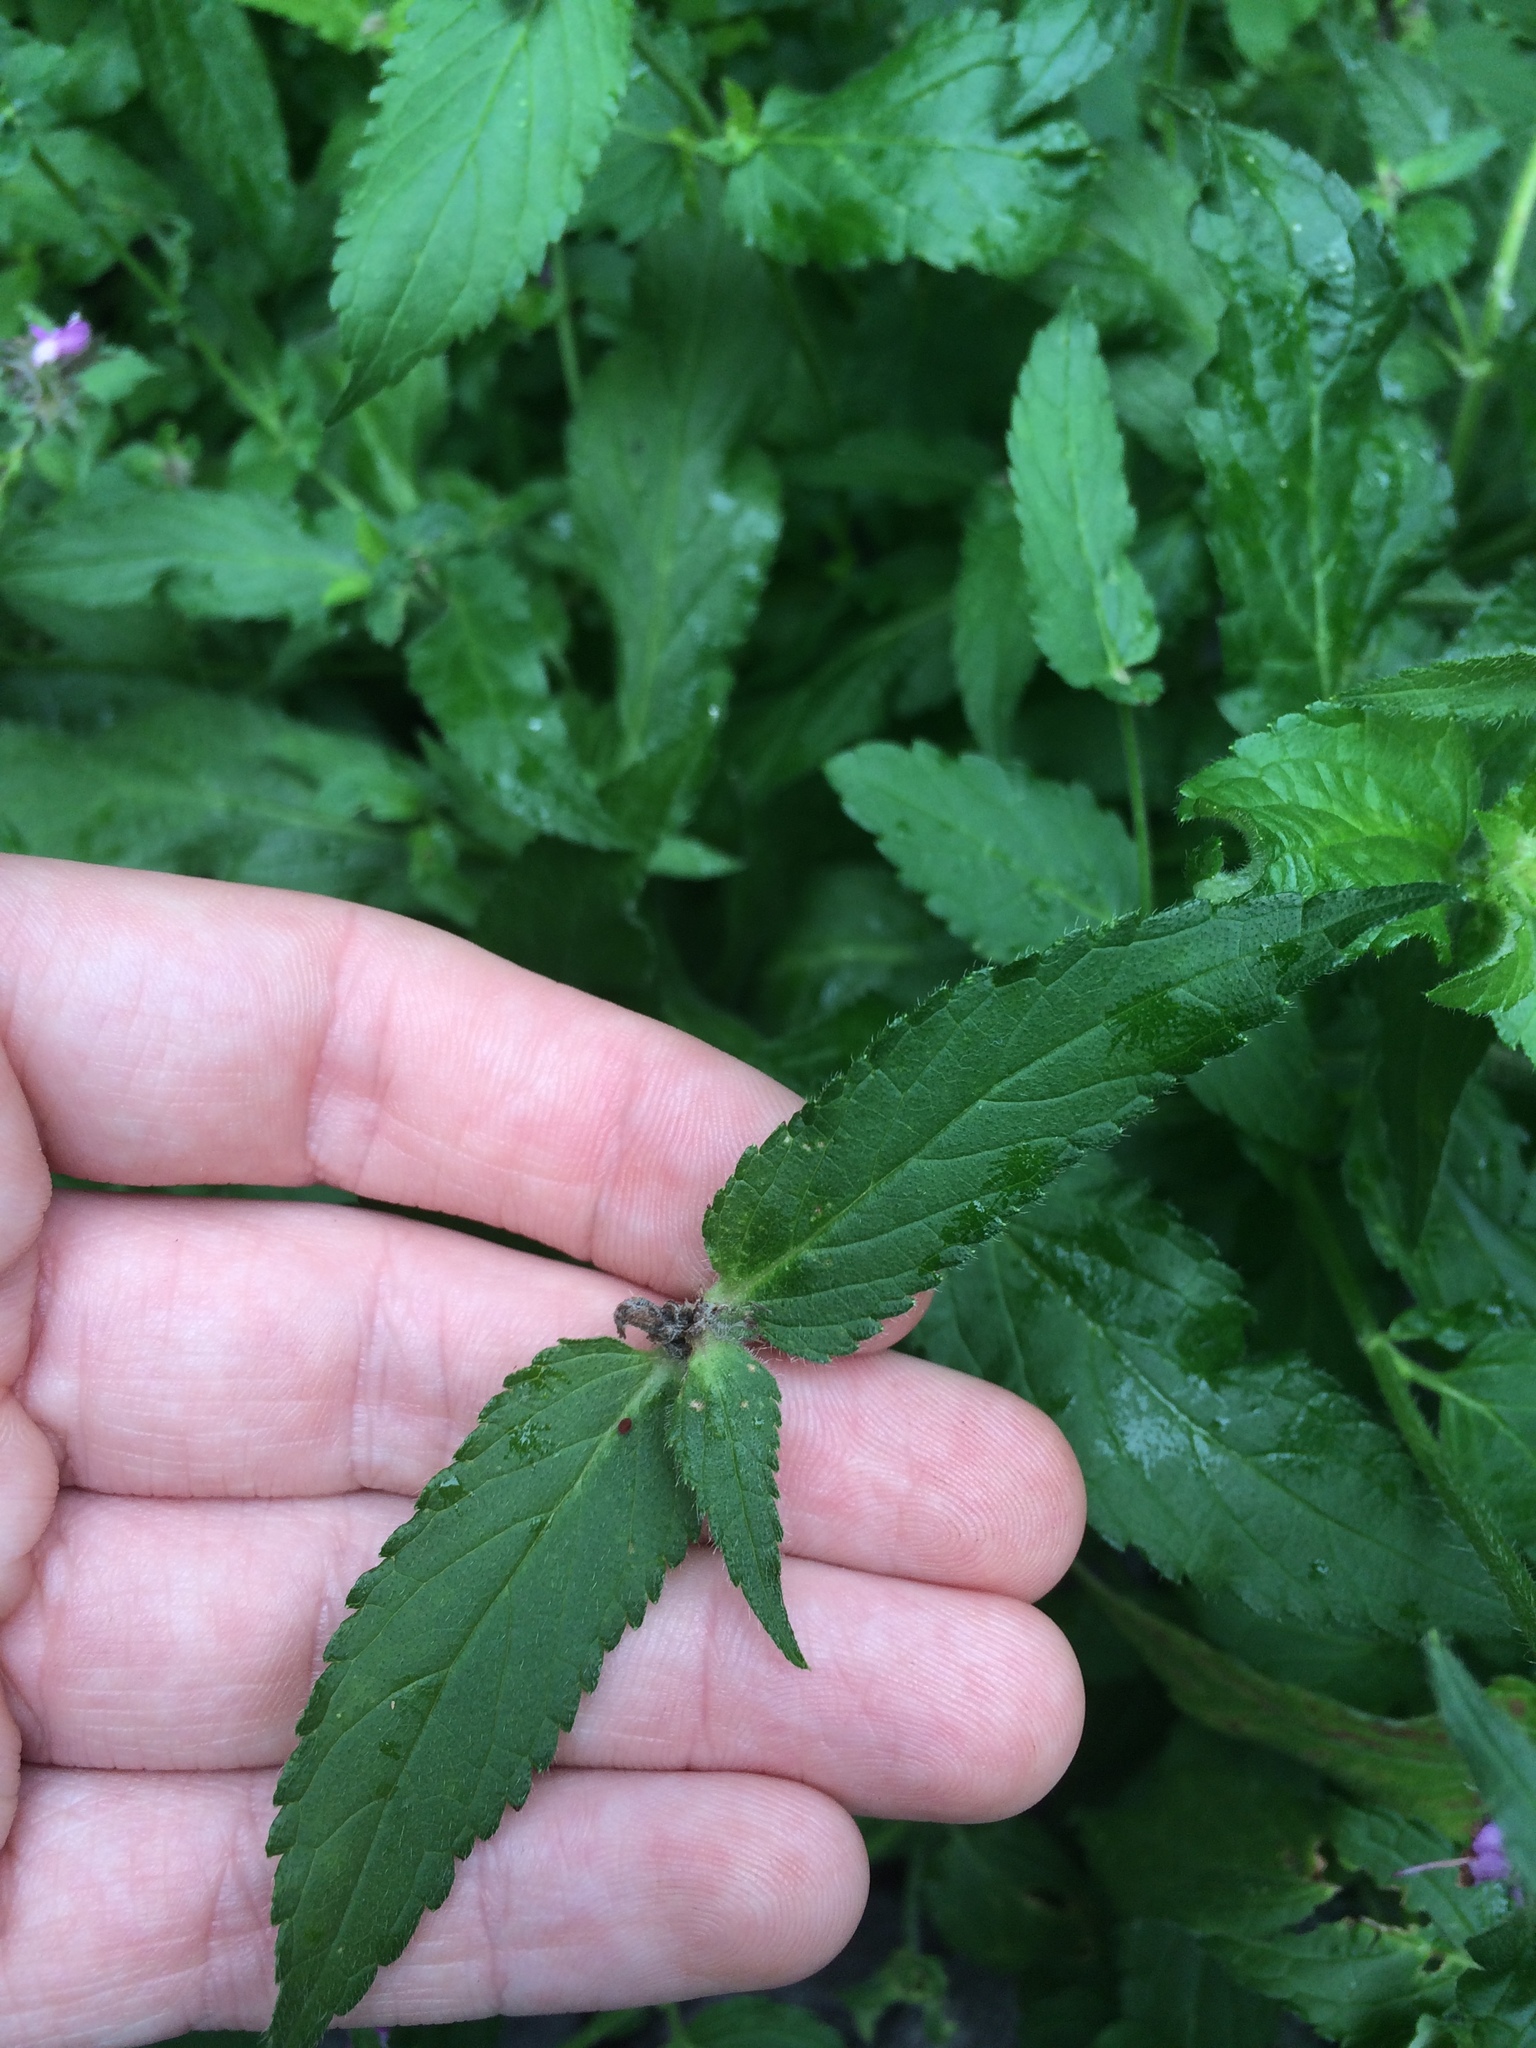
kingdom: Plantae
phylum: Tracheophyta
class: Magnoliopsida
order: Lamiales
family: Lamiaceae
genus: Stachys
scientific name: Stachys palustris
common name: Marsh woundwort
